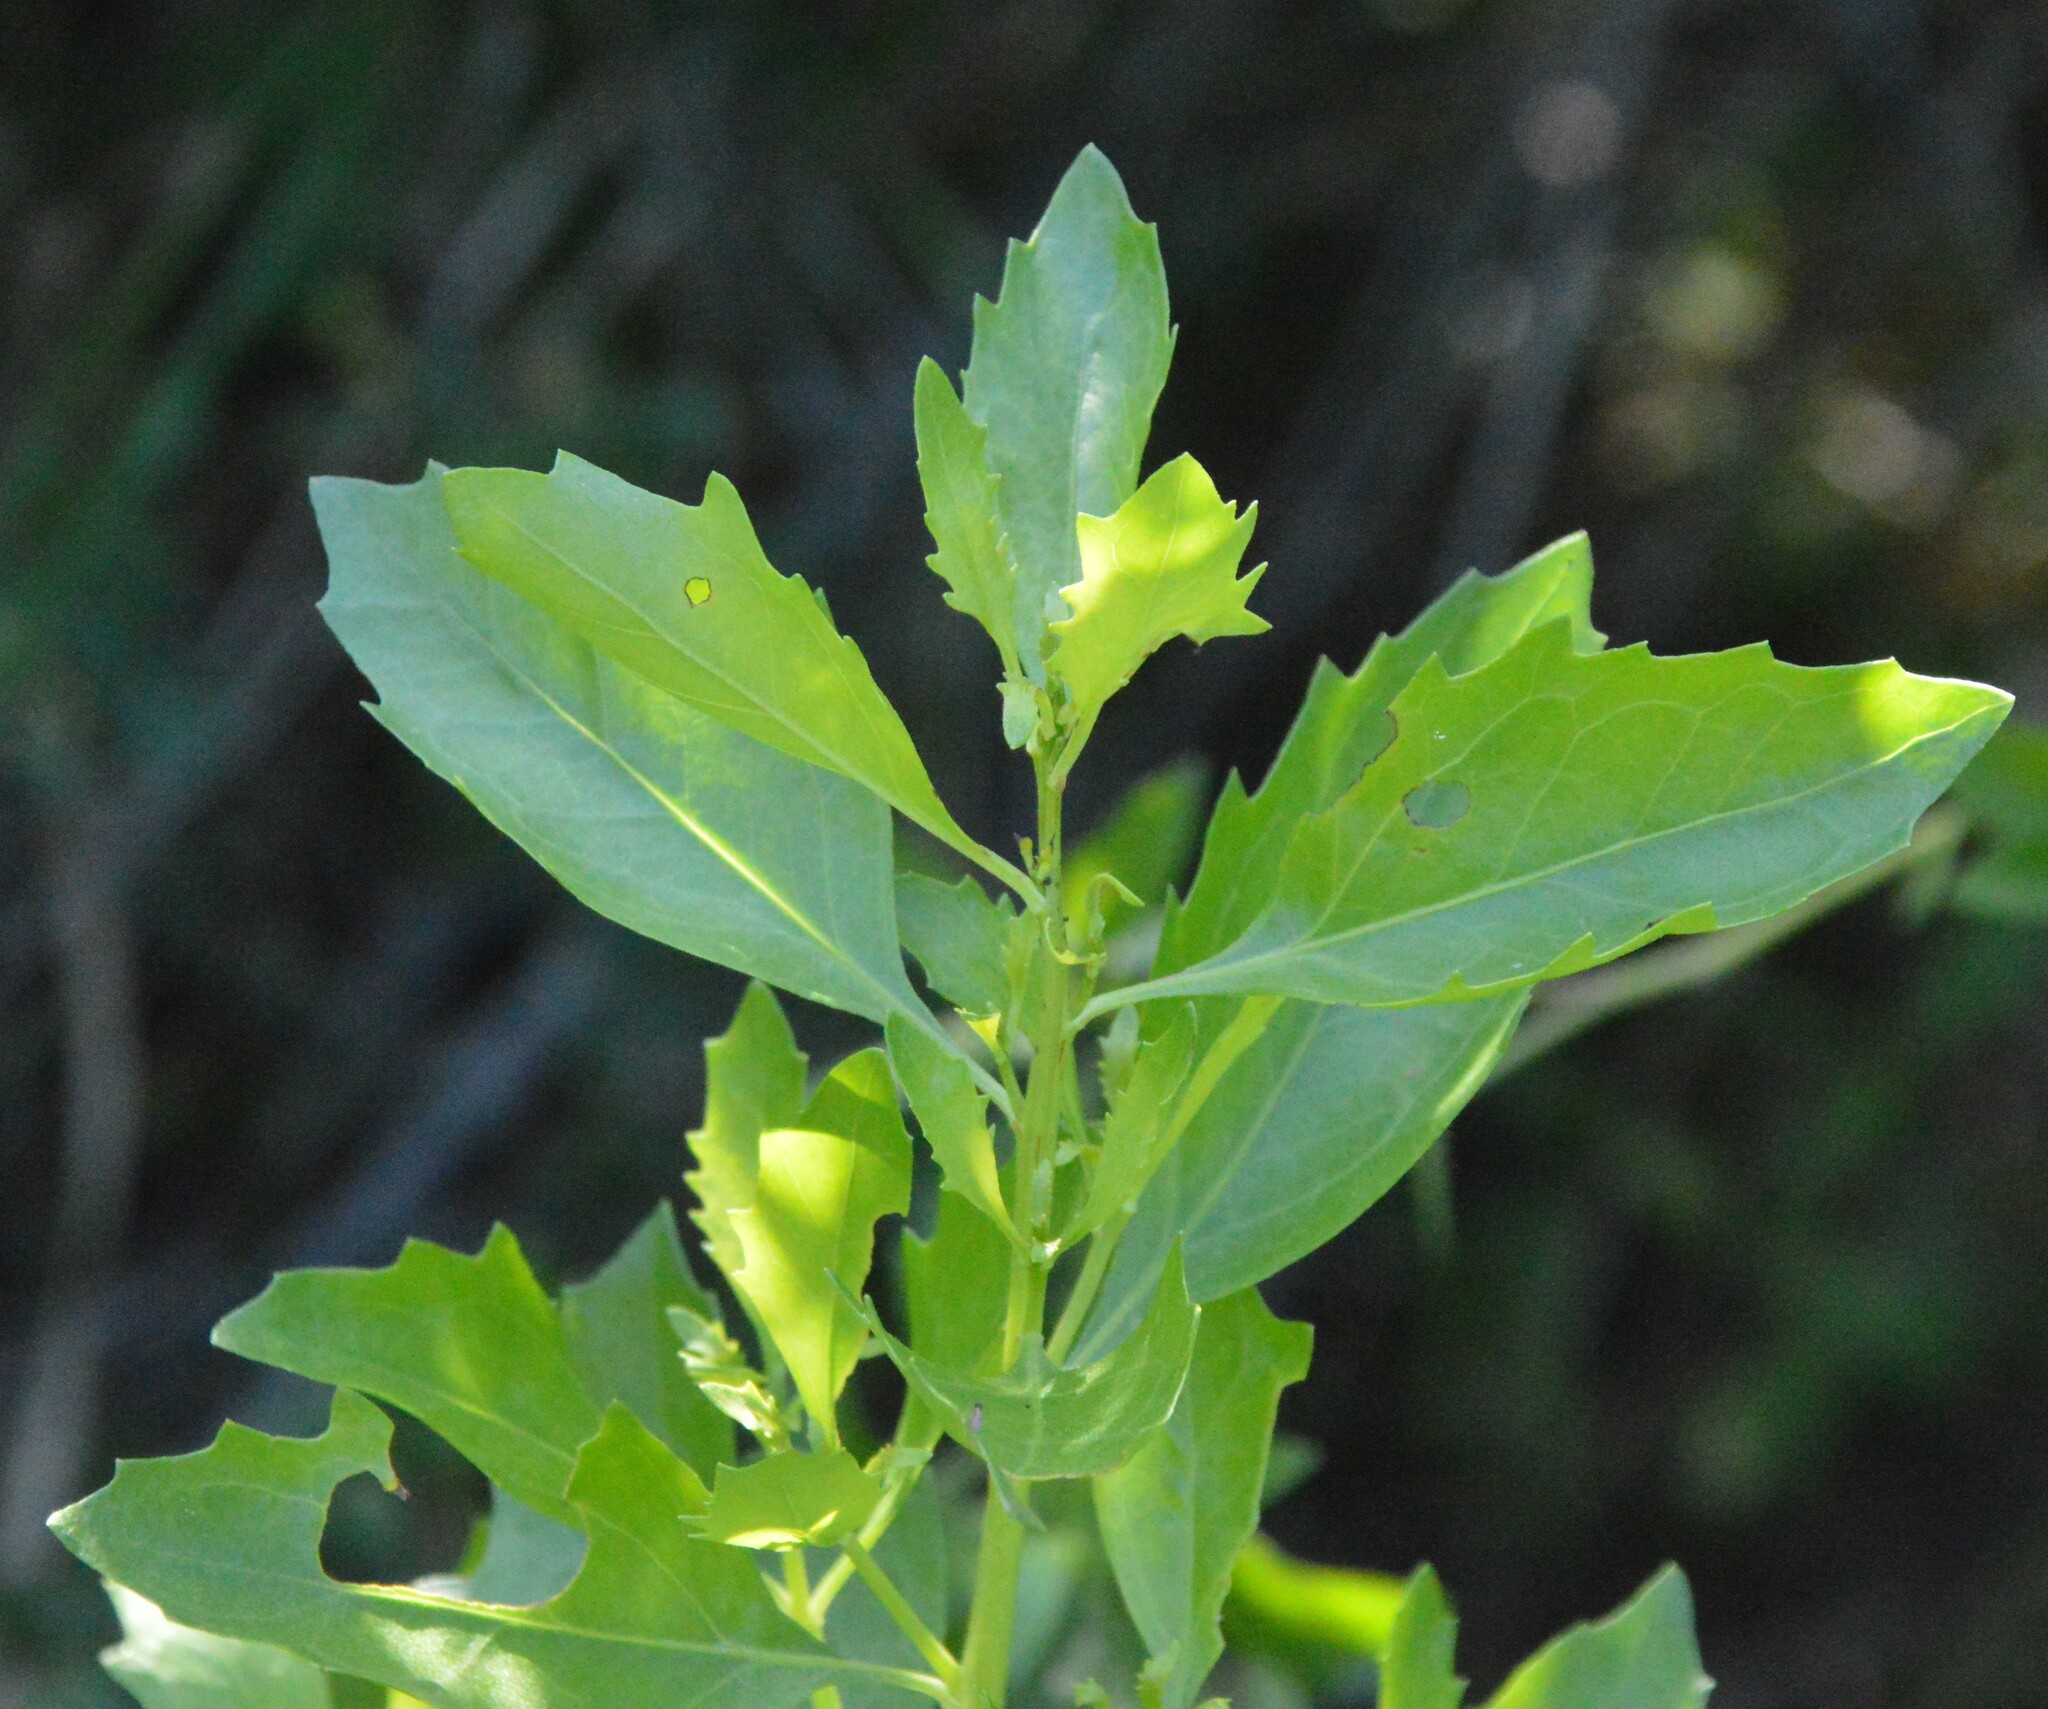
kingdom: Plantae
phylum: Tracheophyta
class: Magnoliopsida
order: Asterales
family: Asteraceae
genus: Baccharis
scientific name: Baccharis halimifolia
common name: Eastern baccharis
